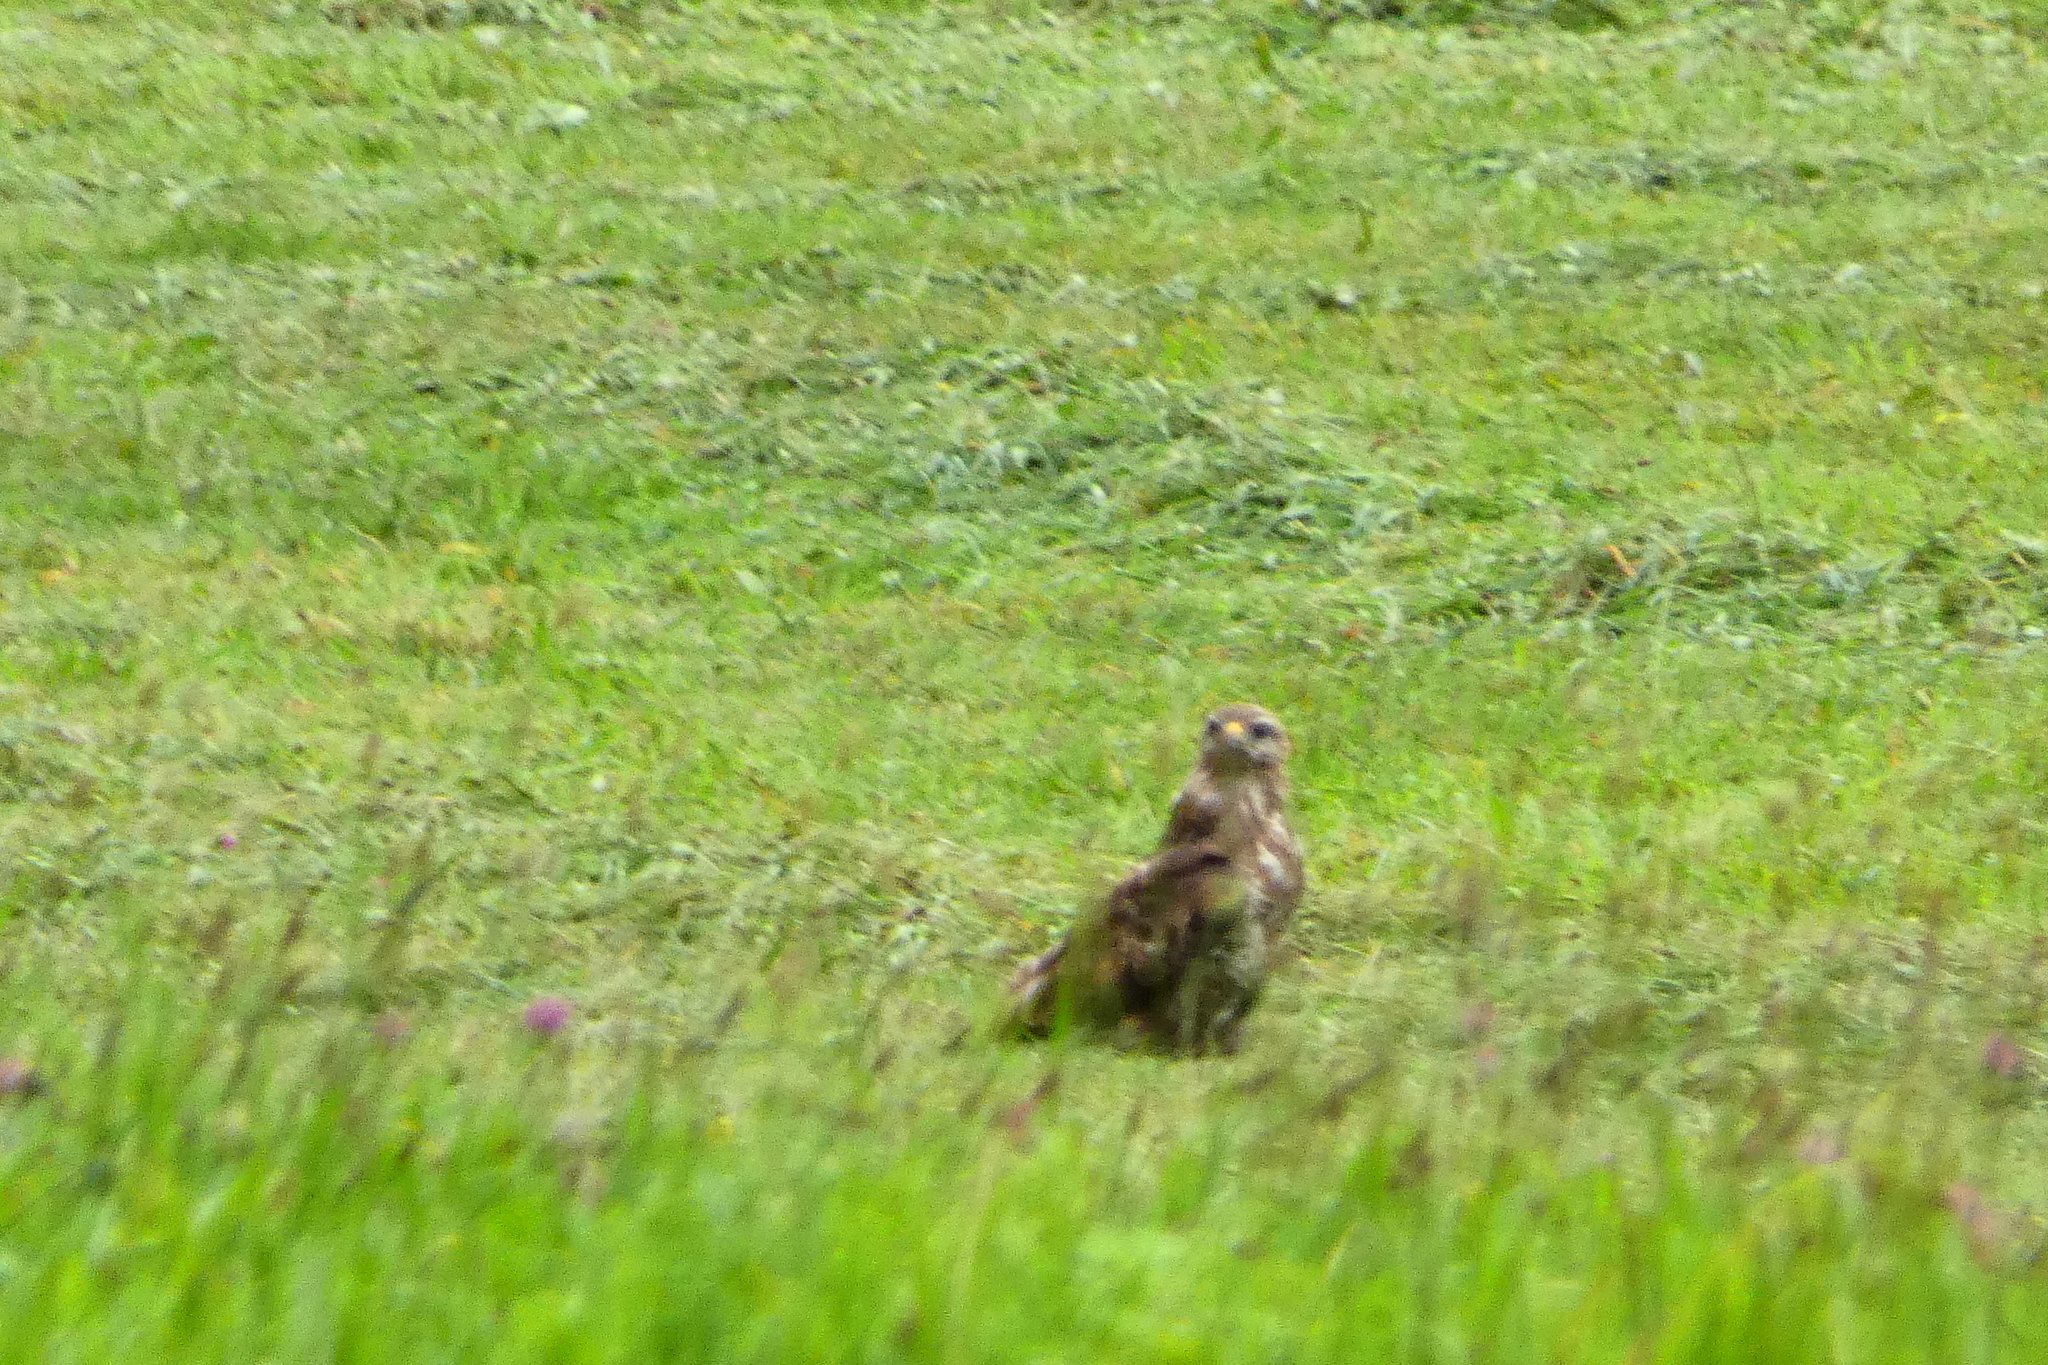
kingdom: Animalia
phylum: Chordata
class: Aves
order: Accipitriformes
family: Accipitridae
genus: Buteo
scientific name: Buteo buteo
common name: Common buzzard
